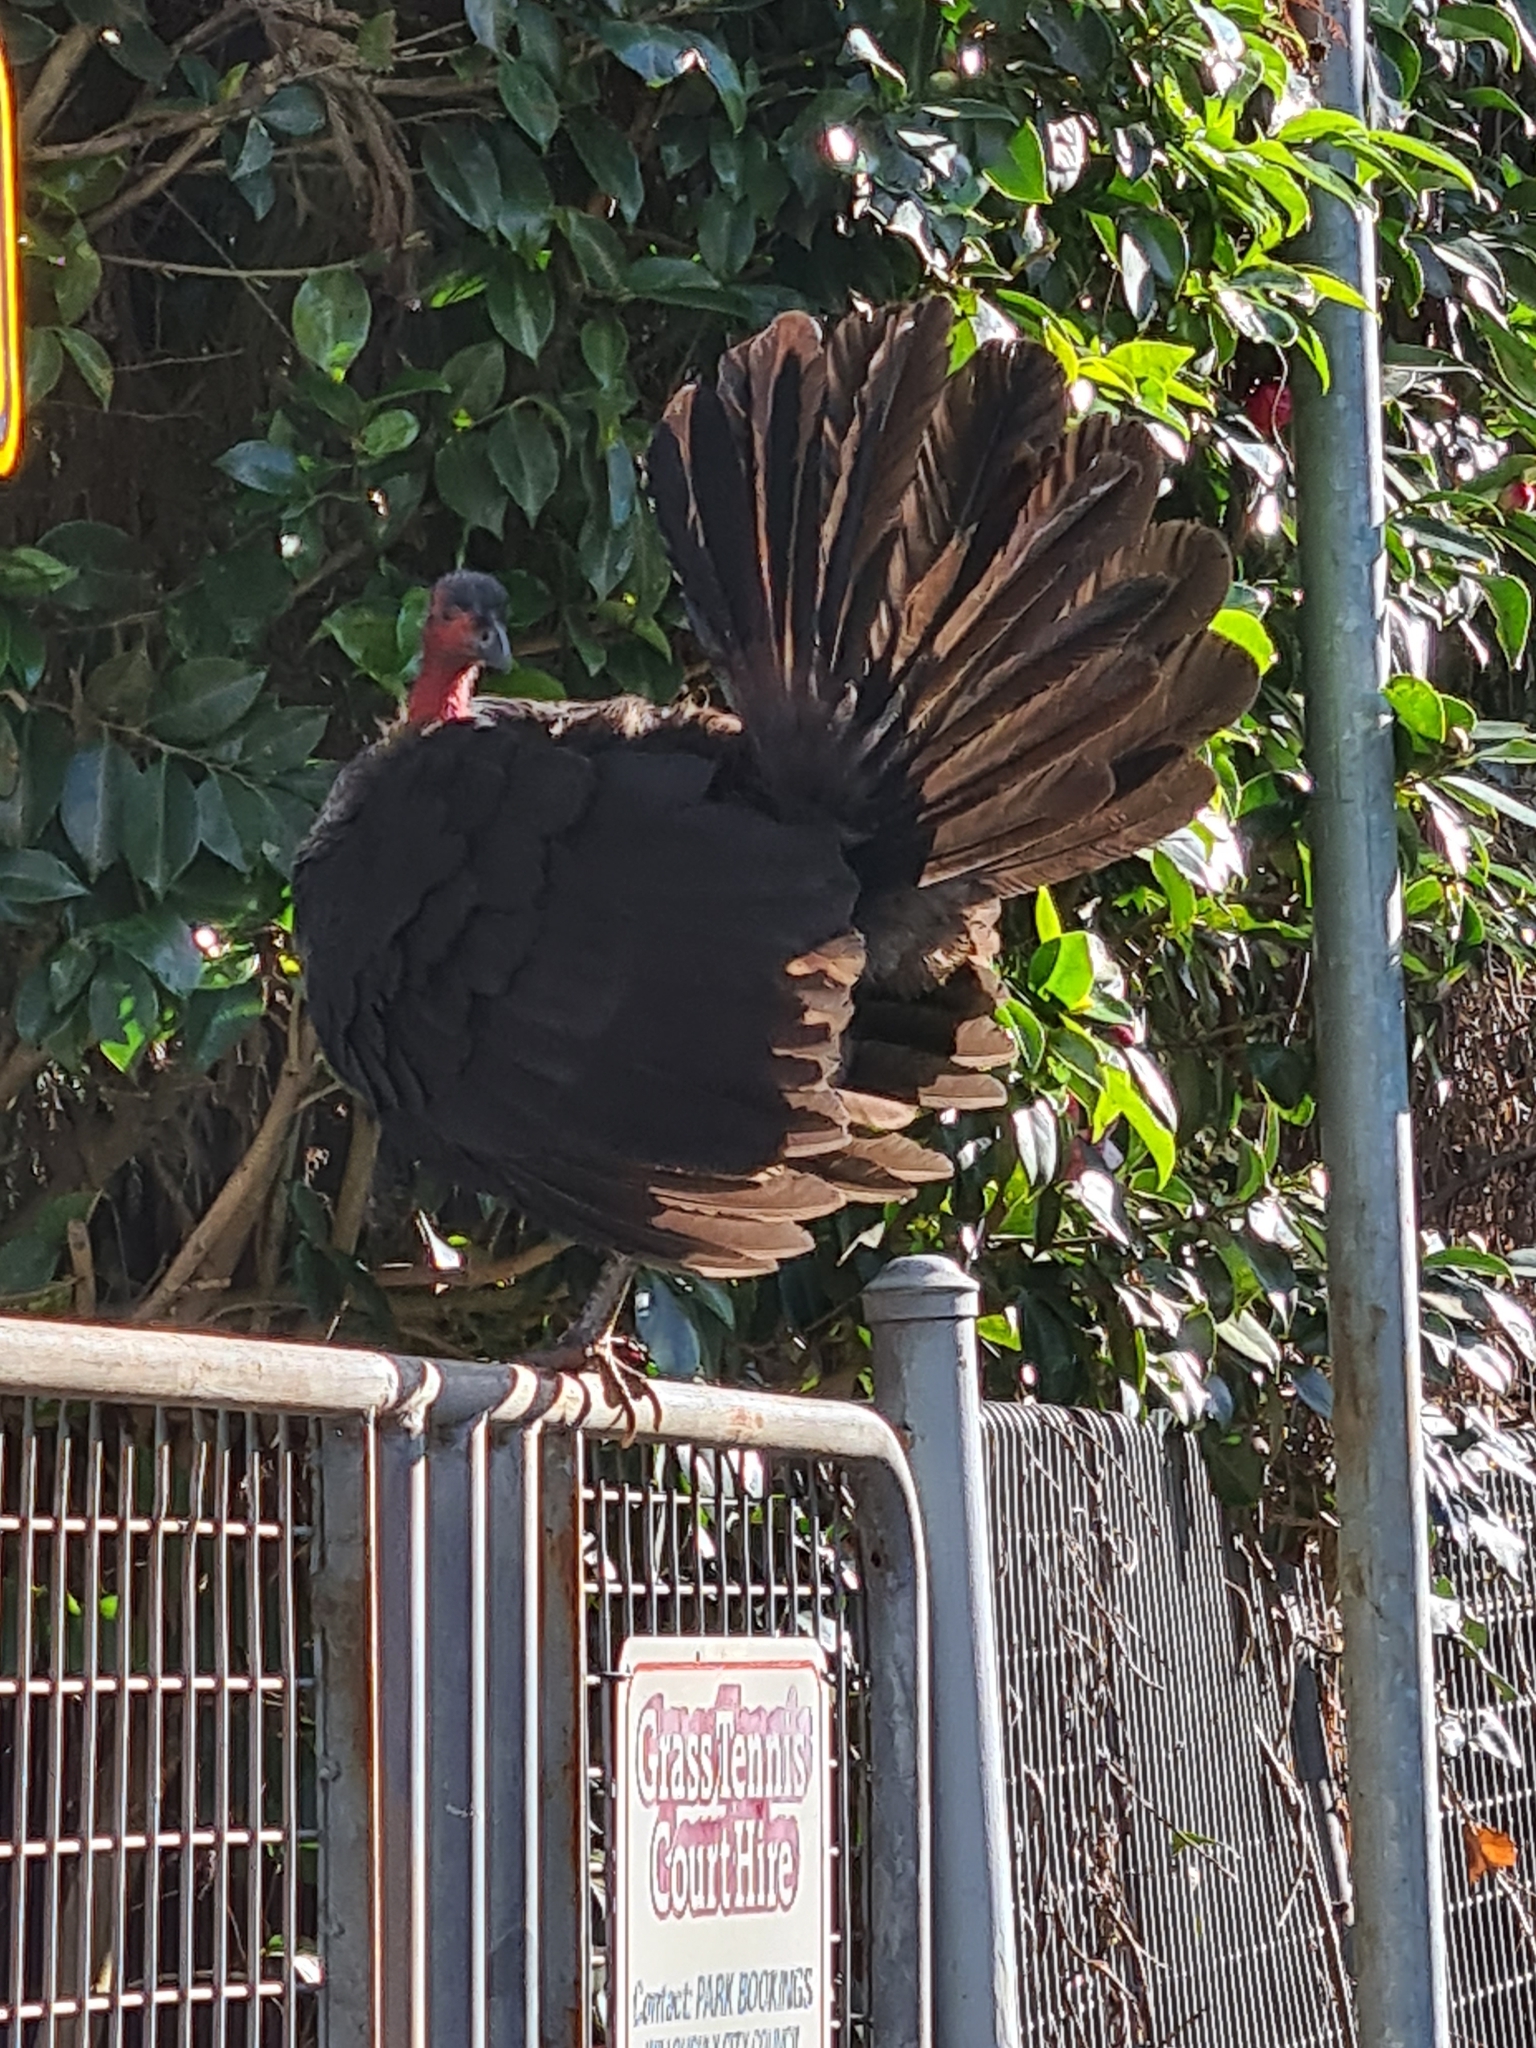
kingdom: Animalia
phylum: Chordata
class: Aves
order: Galliformes
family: Megapodiidae
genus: Alectura
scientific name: Alectura lathami
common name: Australian brushturkey
